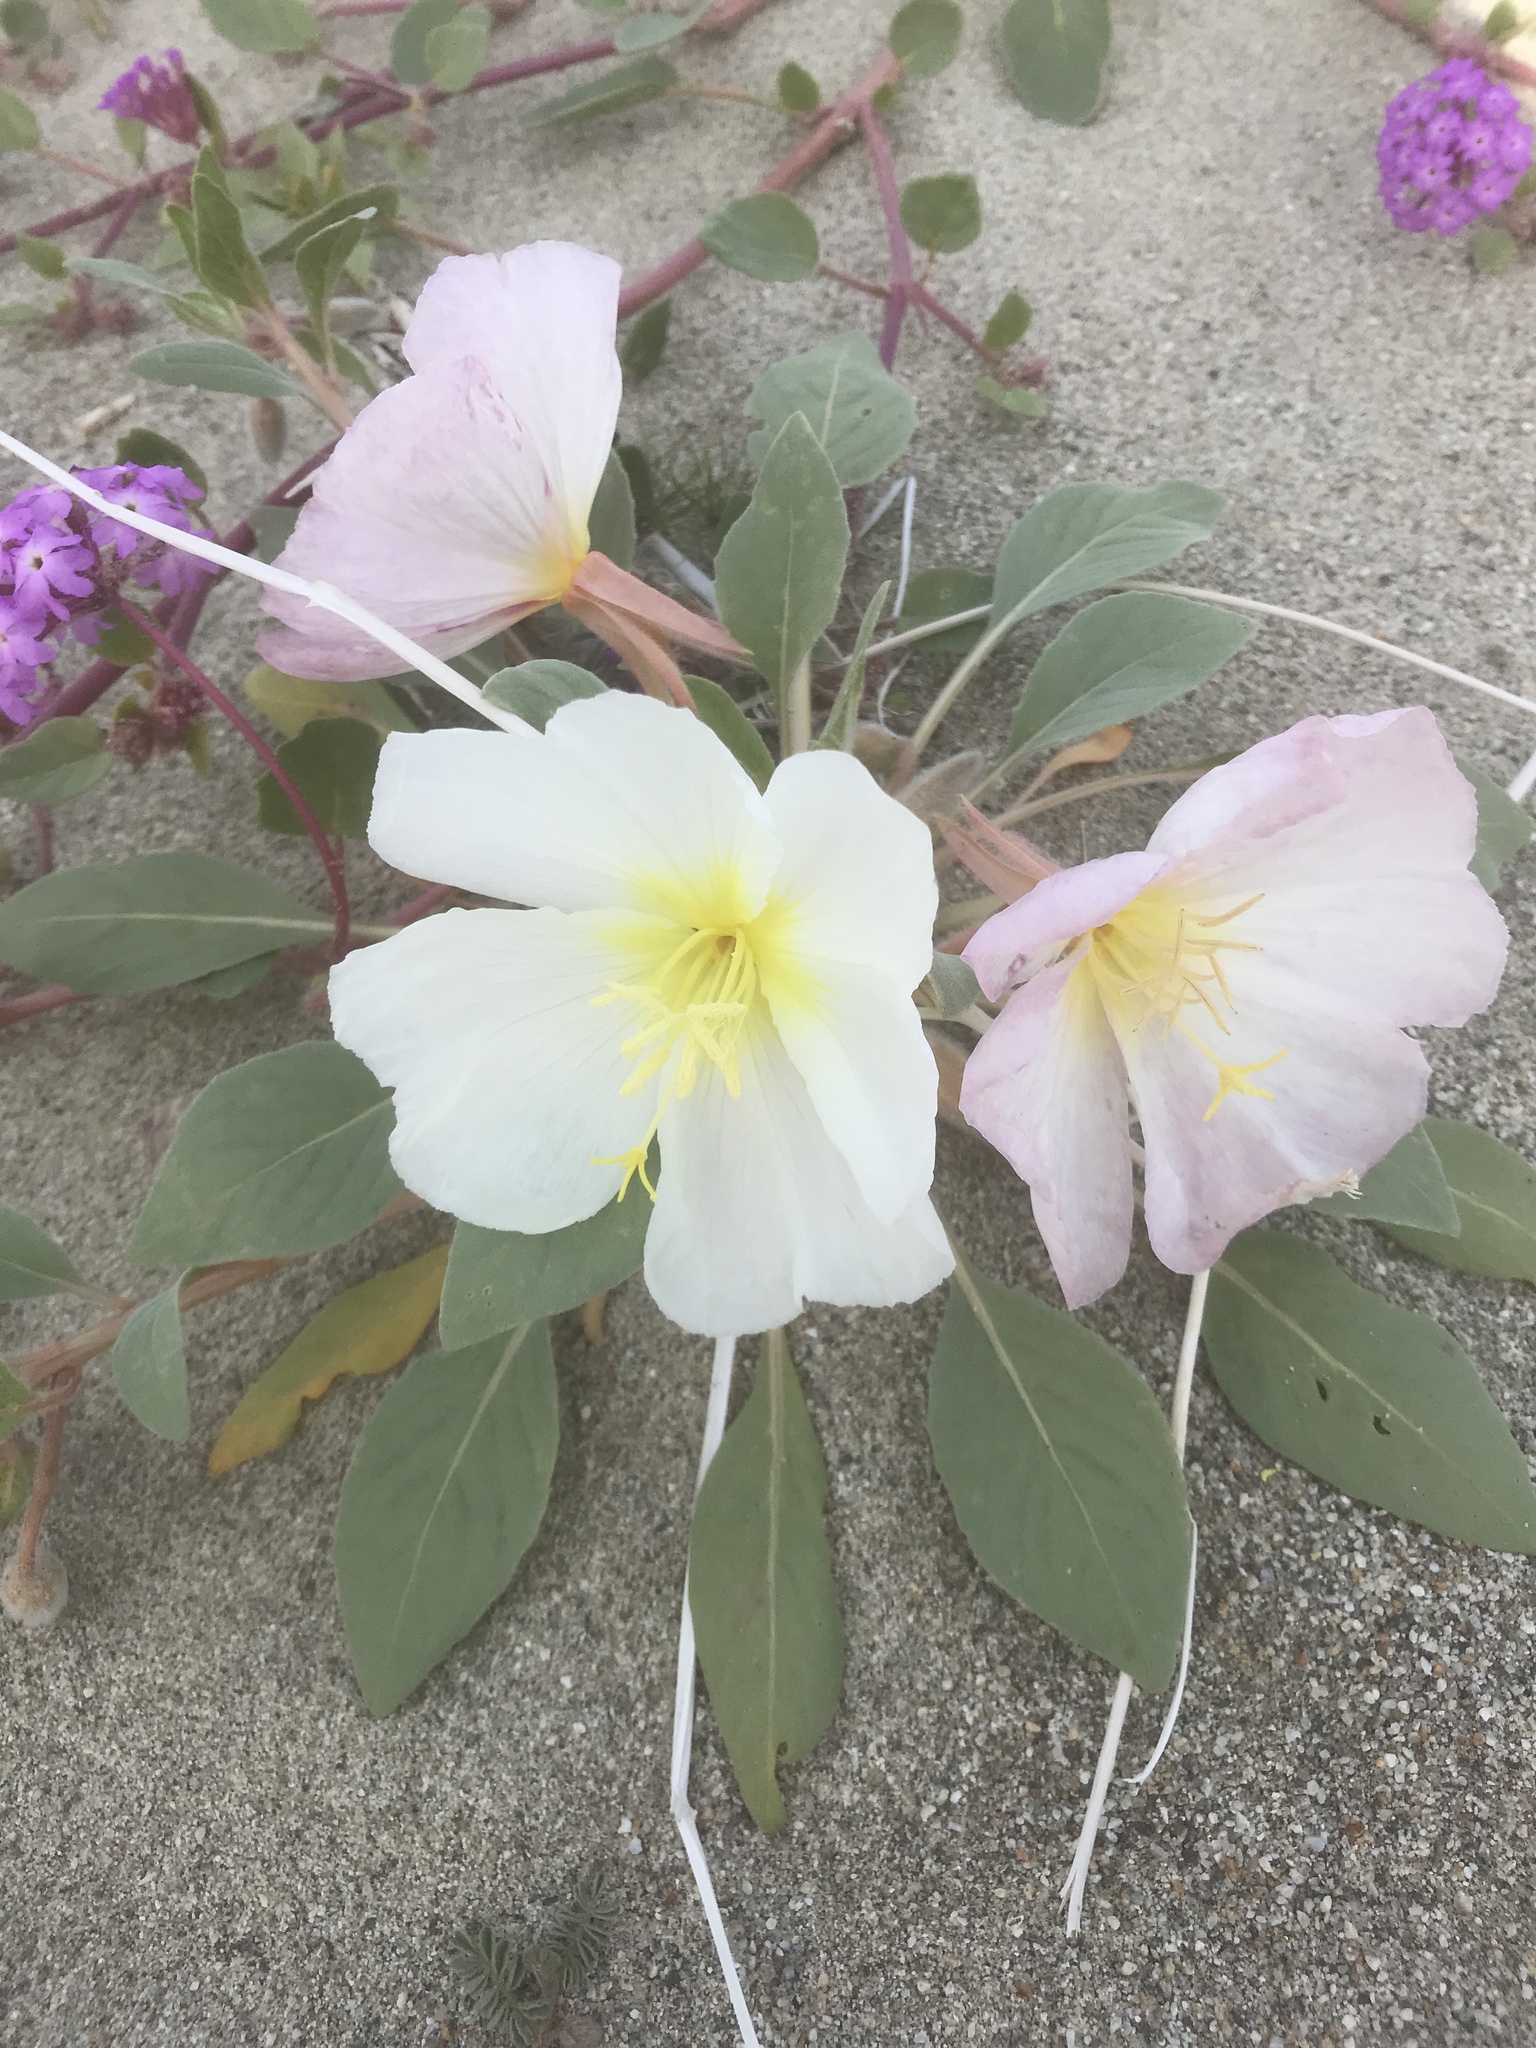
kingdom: Plantae
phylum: Tracheophyta
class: Magnoliopsida
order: Myrtales
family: Onagraceae
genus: Oenothera
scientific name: Oenothera deltoides
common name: Basket evening-primrose
